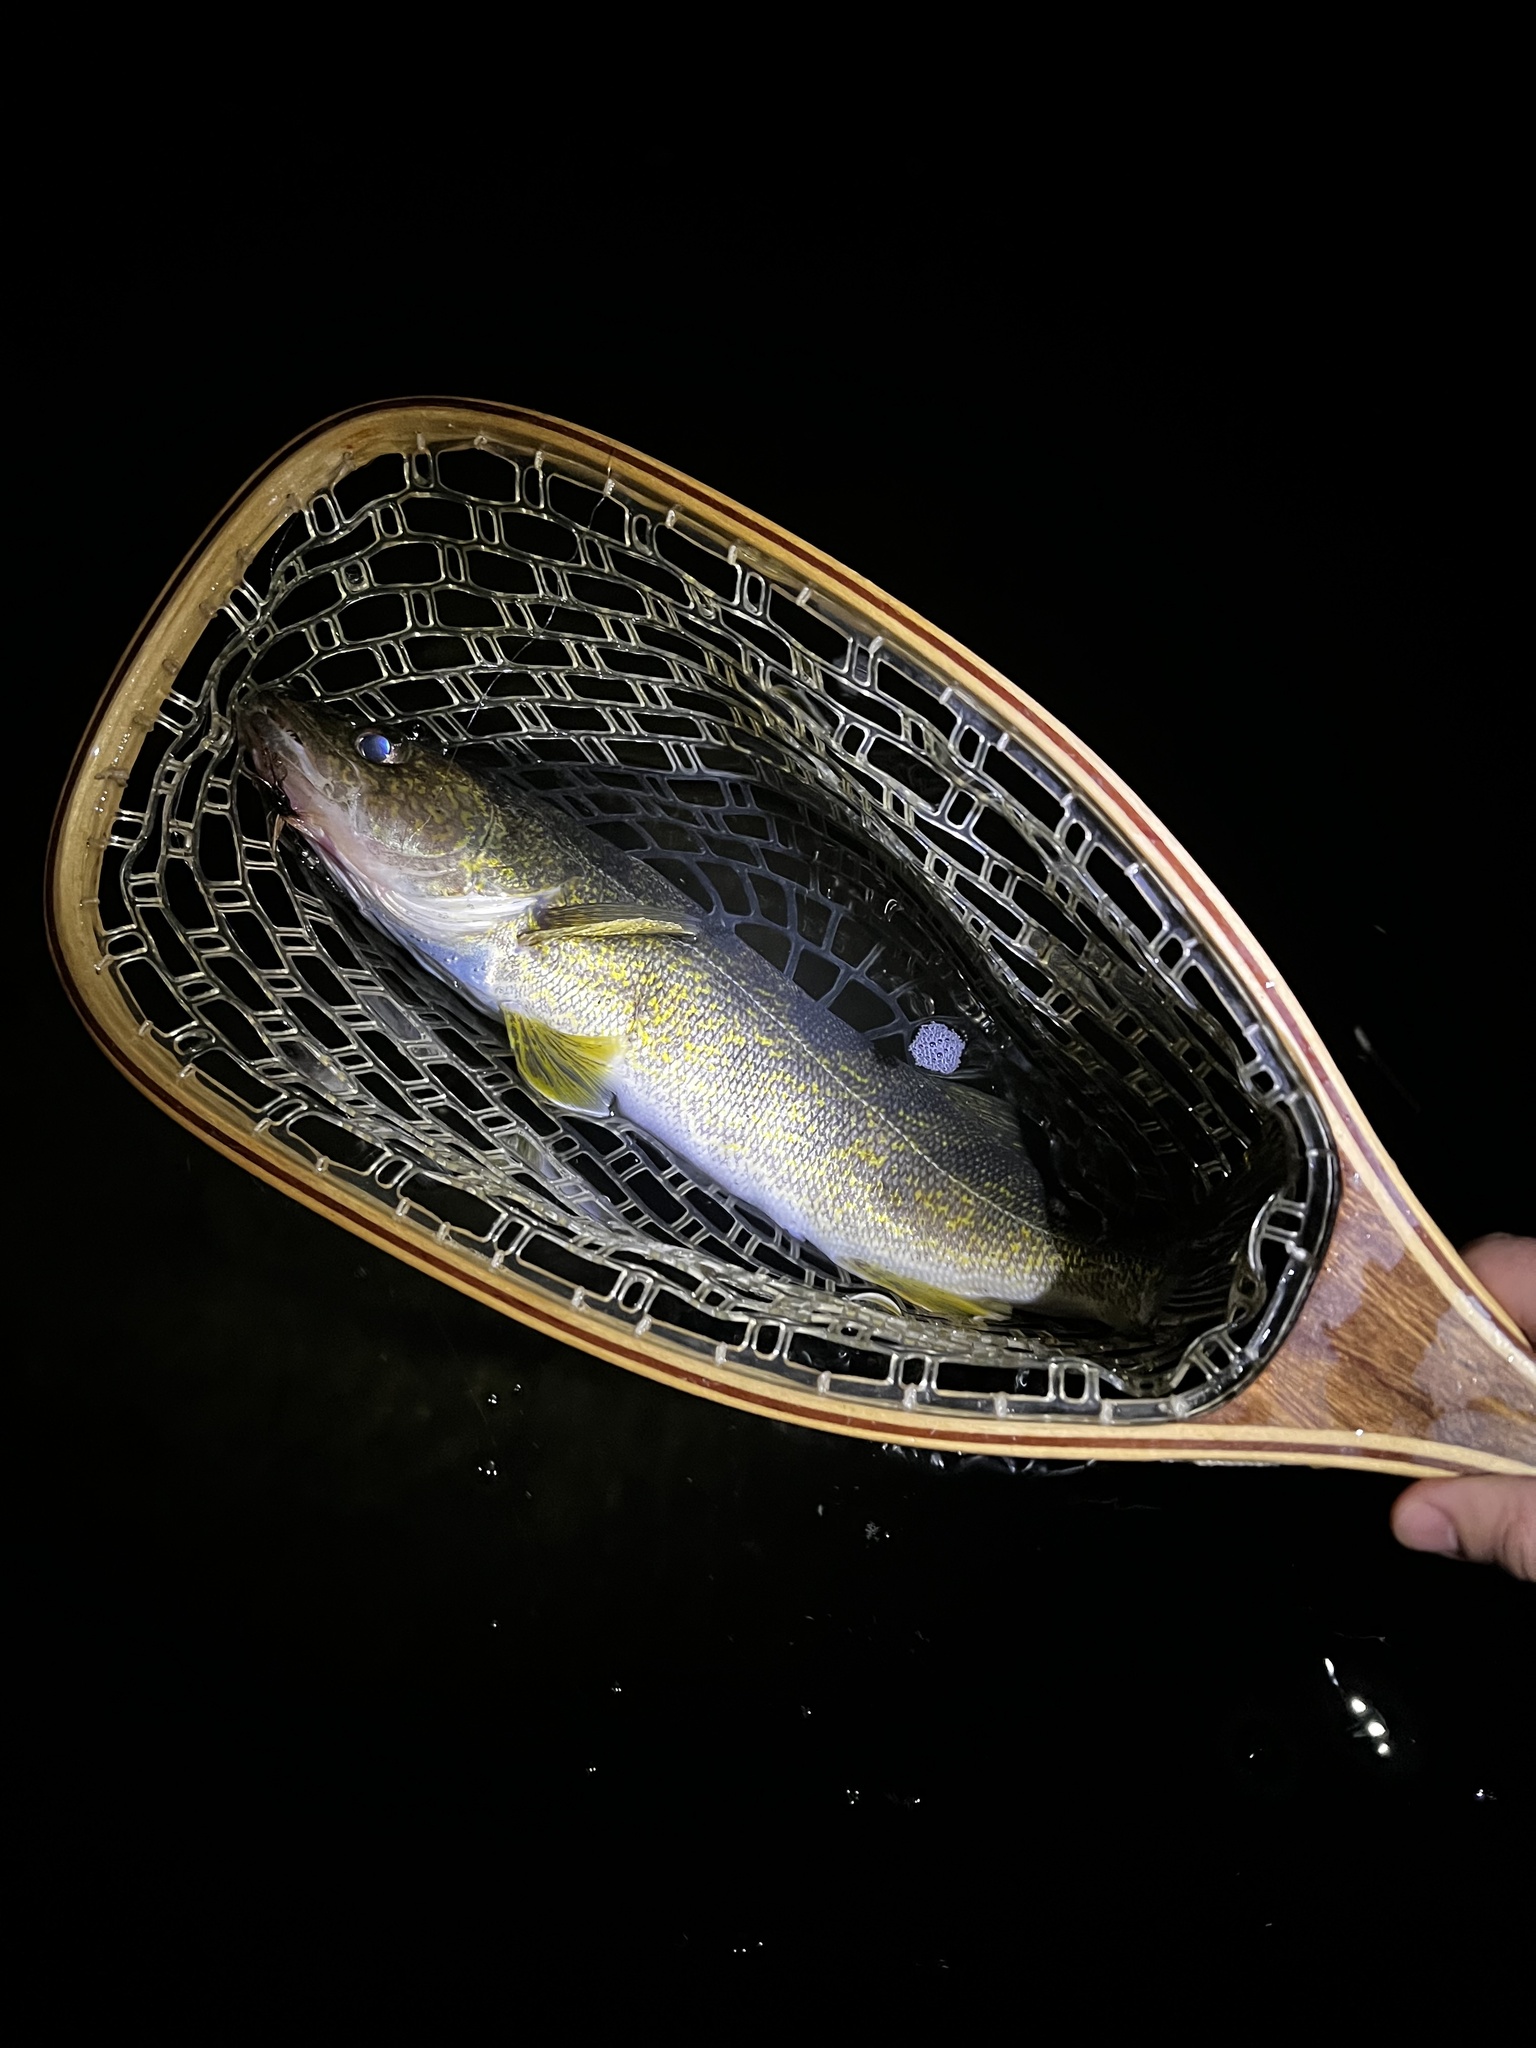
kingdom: Animalia
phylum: Chordata
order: Perciformes
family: Percidae
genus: Sander
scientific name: Sander vitreus
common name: Walleye
